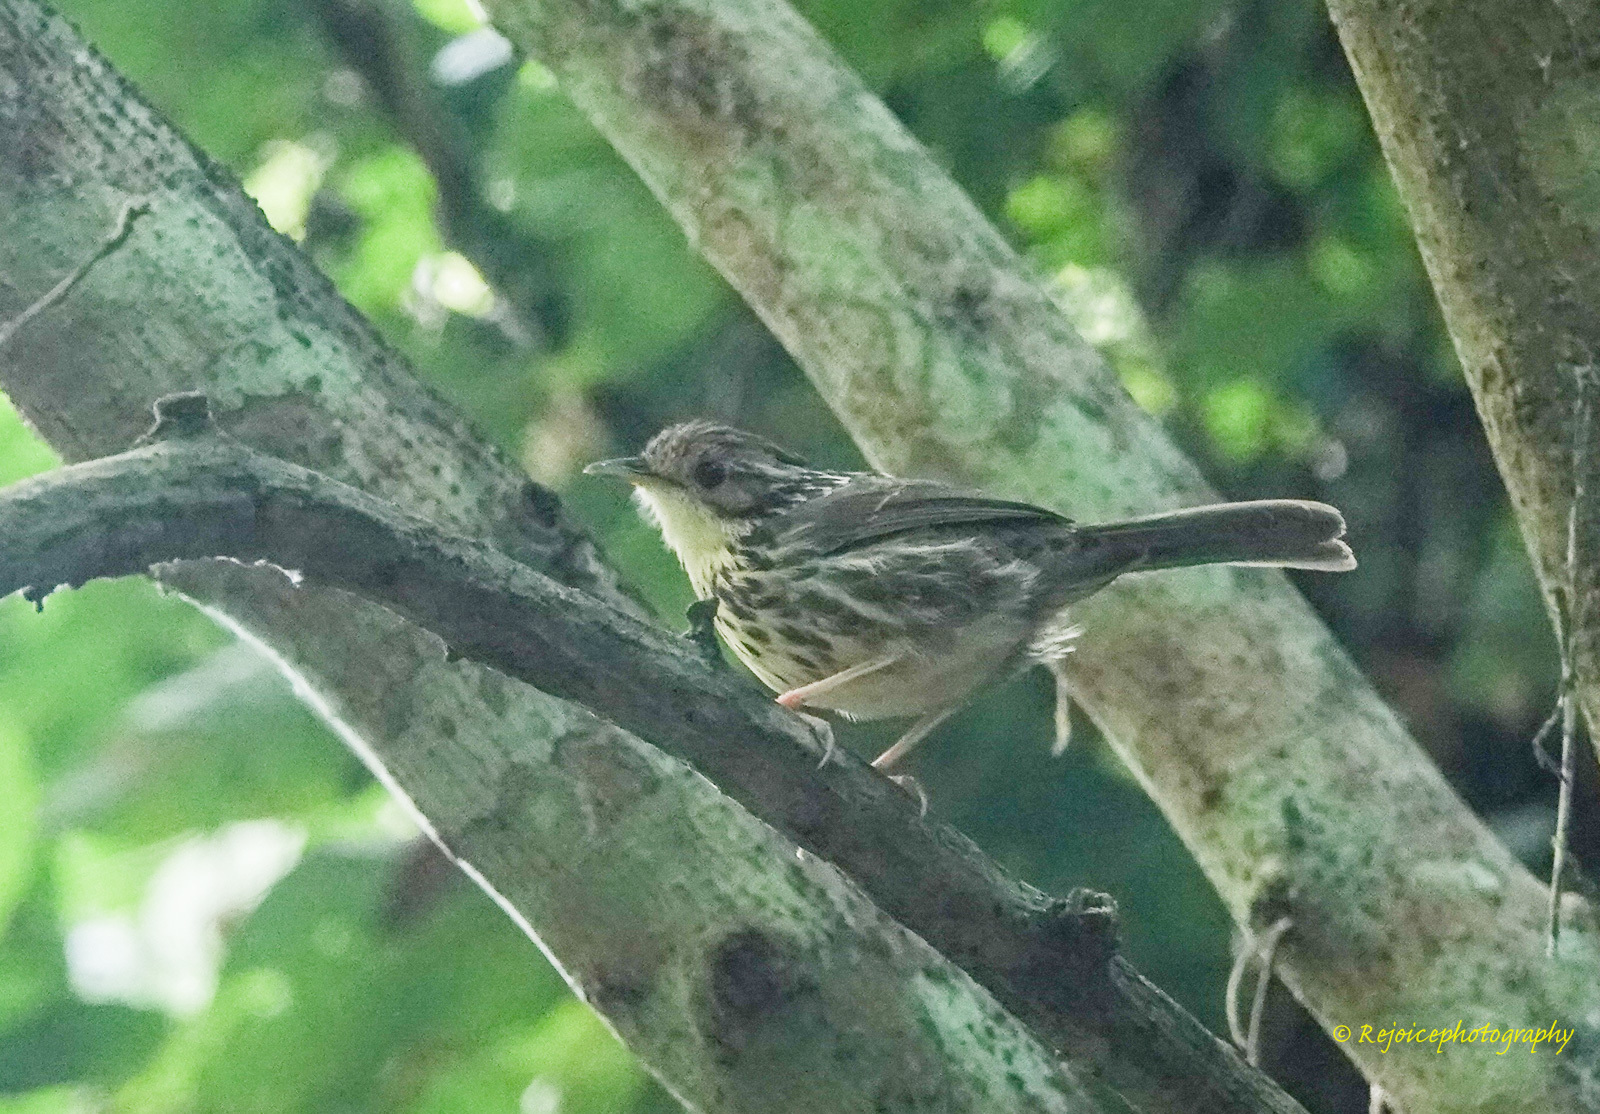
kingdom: Animalia
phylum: Chordata
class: Aves
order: Passeriformes
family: Pellorneidae
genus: Pellorneum
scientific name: Pellorneum ruficeps
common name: Puff-throated babbler
